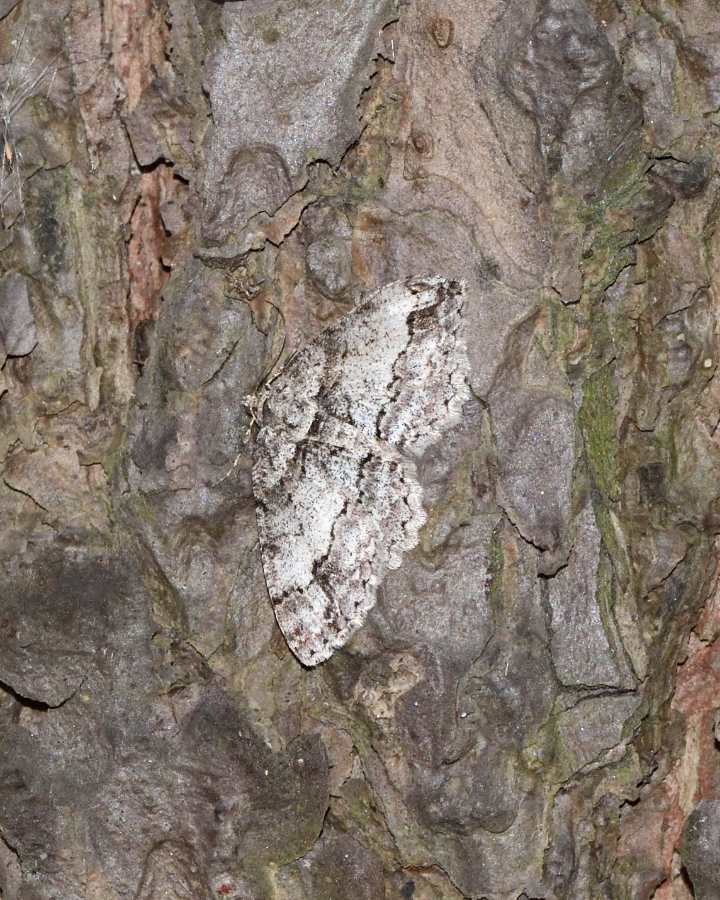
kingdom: Animalia
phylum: Arthropoda
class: Insecta
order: Lepidoptera
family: Geometridae
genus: Paradarisa
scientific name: Paradarisa consonaria
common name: Square spot
